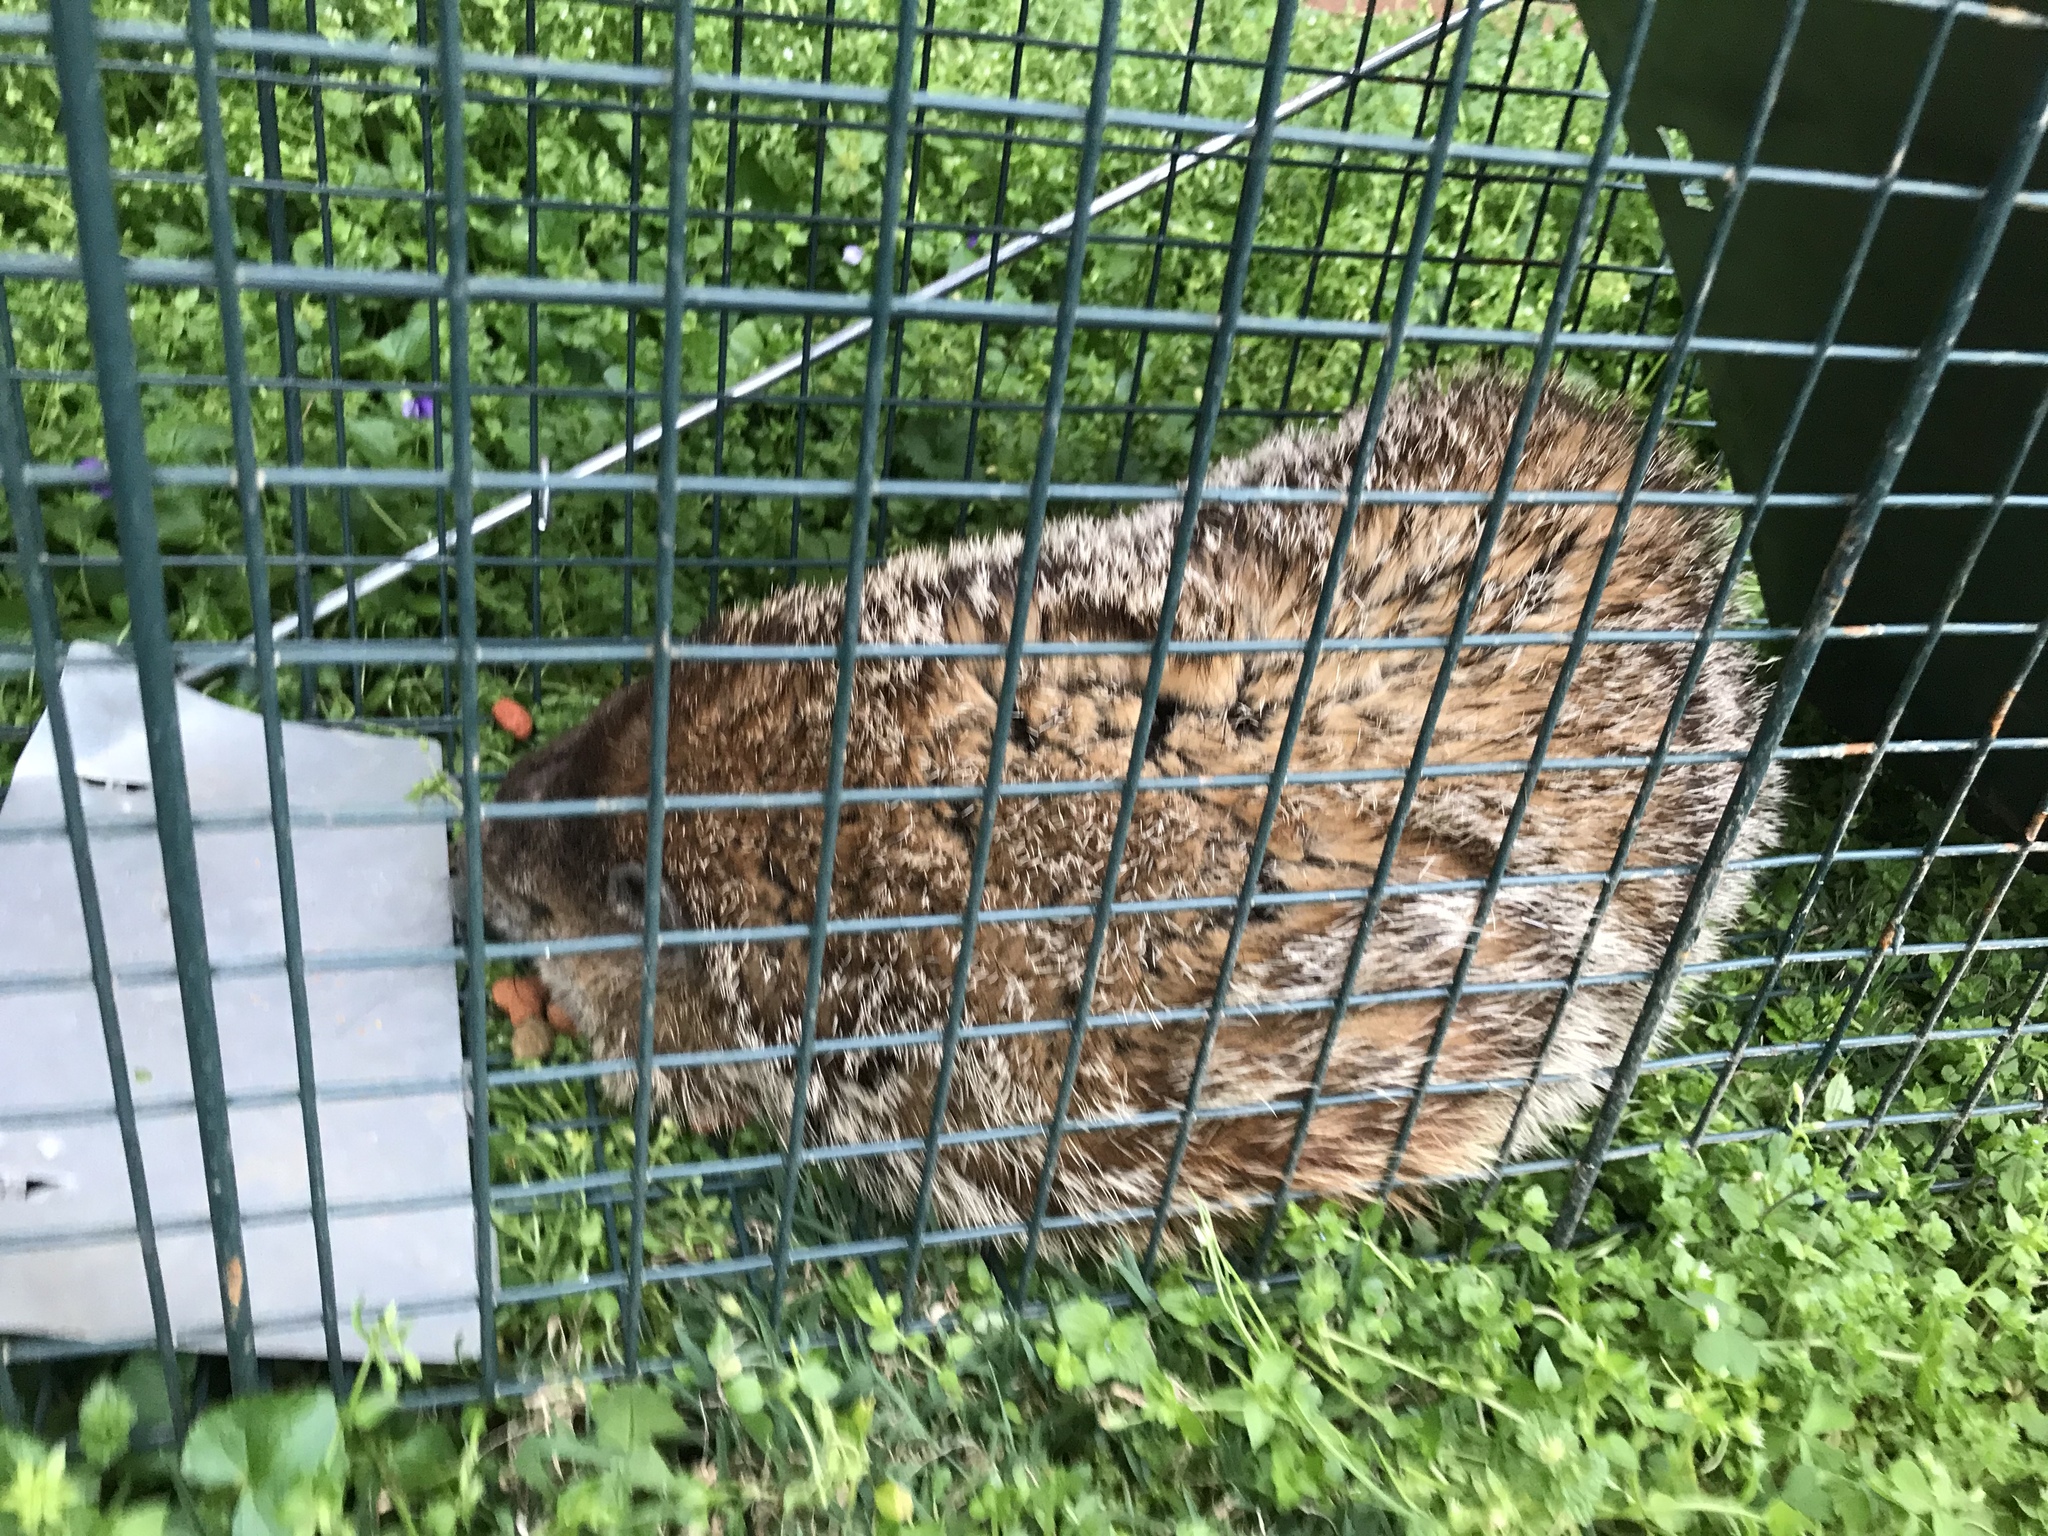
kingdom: Animalia
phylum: Chordata
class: Mammalia
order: Rodentia
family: Sciuridae
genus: Marmota
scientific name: Marmota monax
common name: Groundhog
